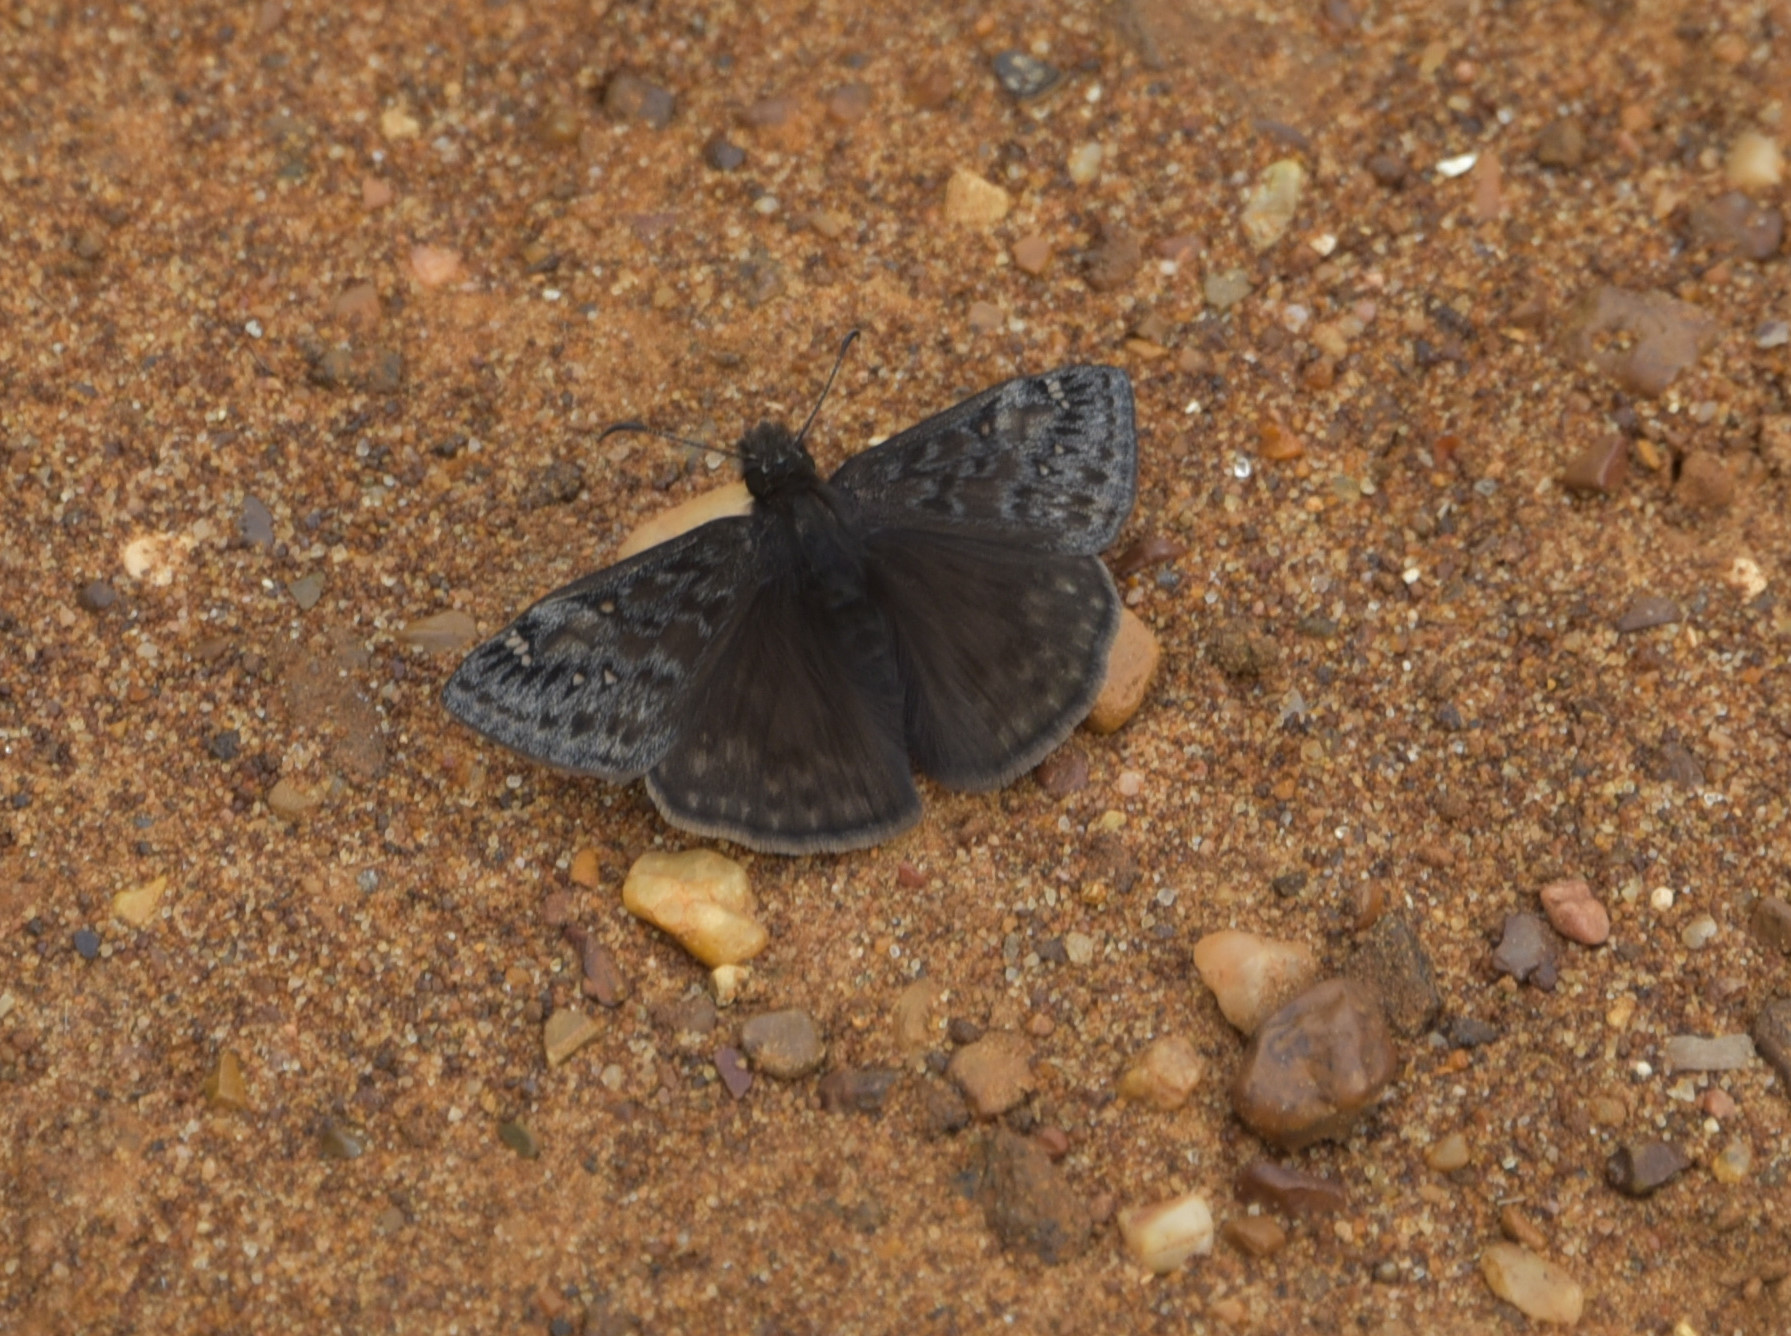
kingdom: Animalia
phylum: Arthropoda
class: Insecta
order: Lepidoptera
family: Hesperiidae
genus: Erynnis
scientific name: Erynnis juvenalis
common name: Juvenal's duskywing
